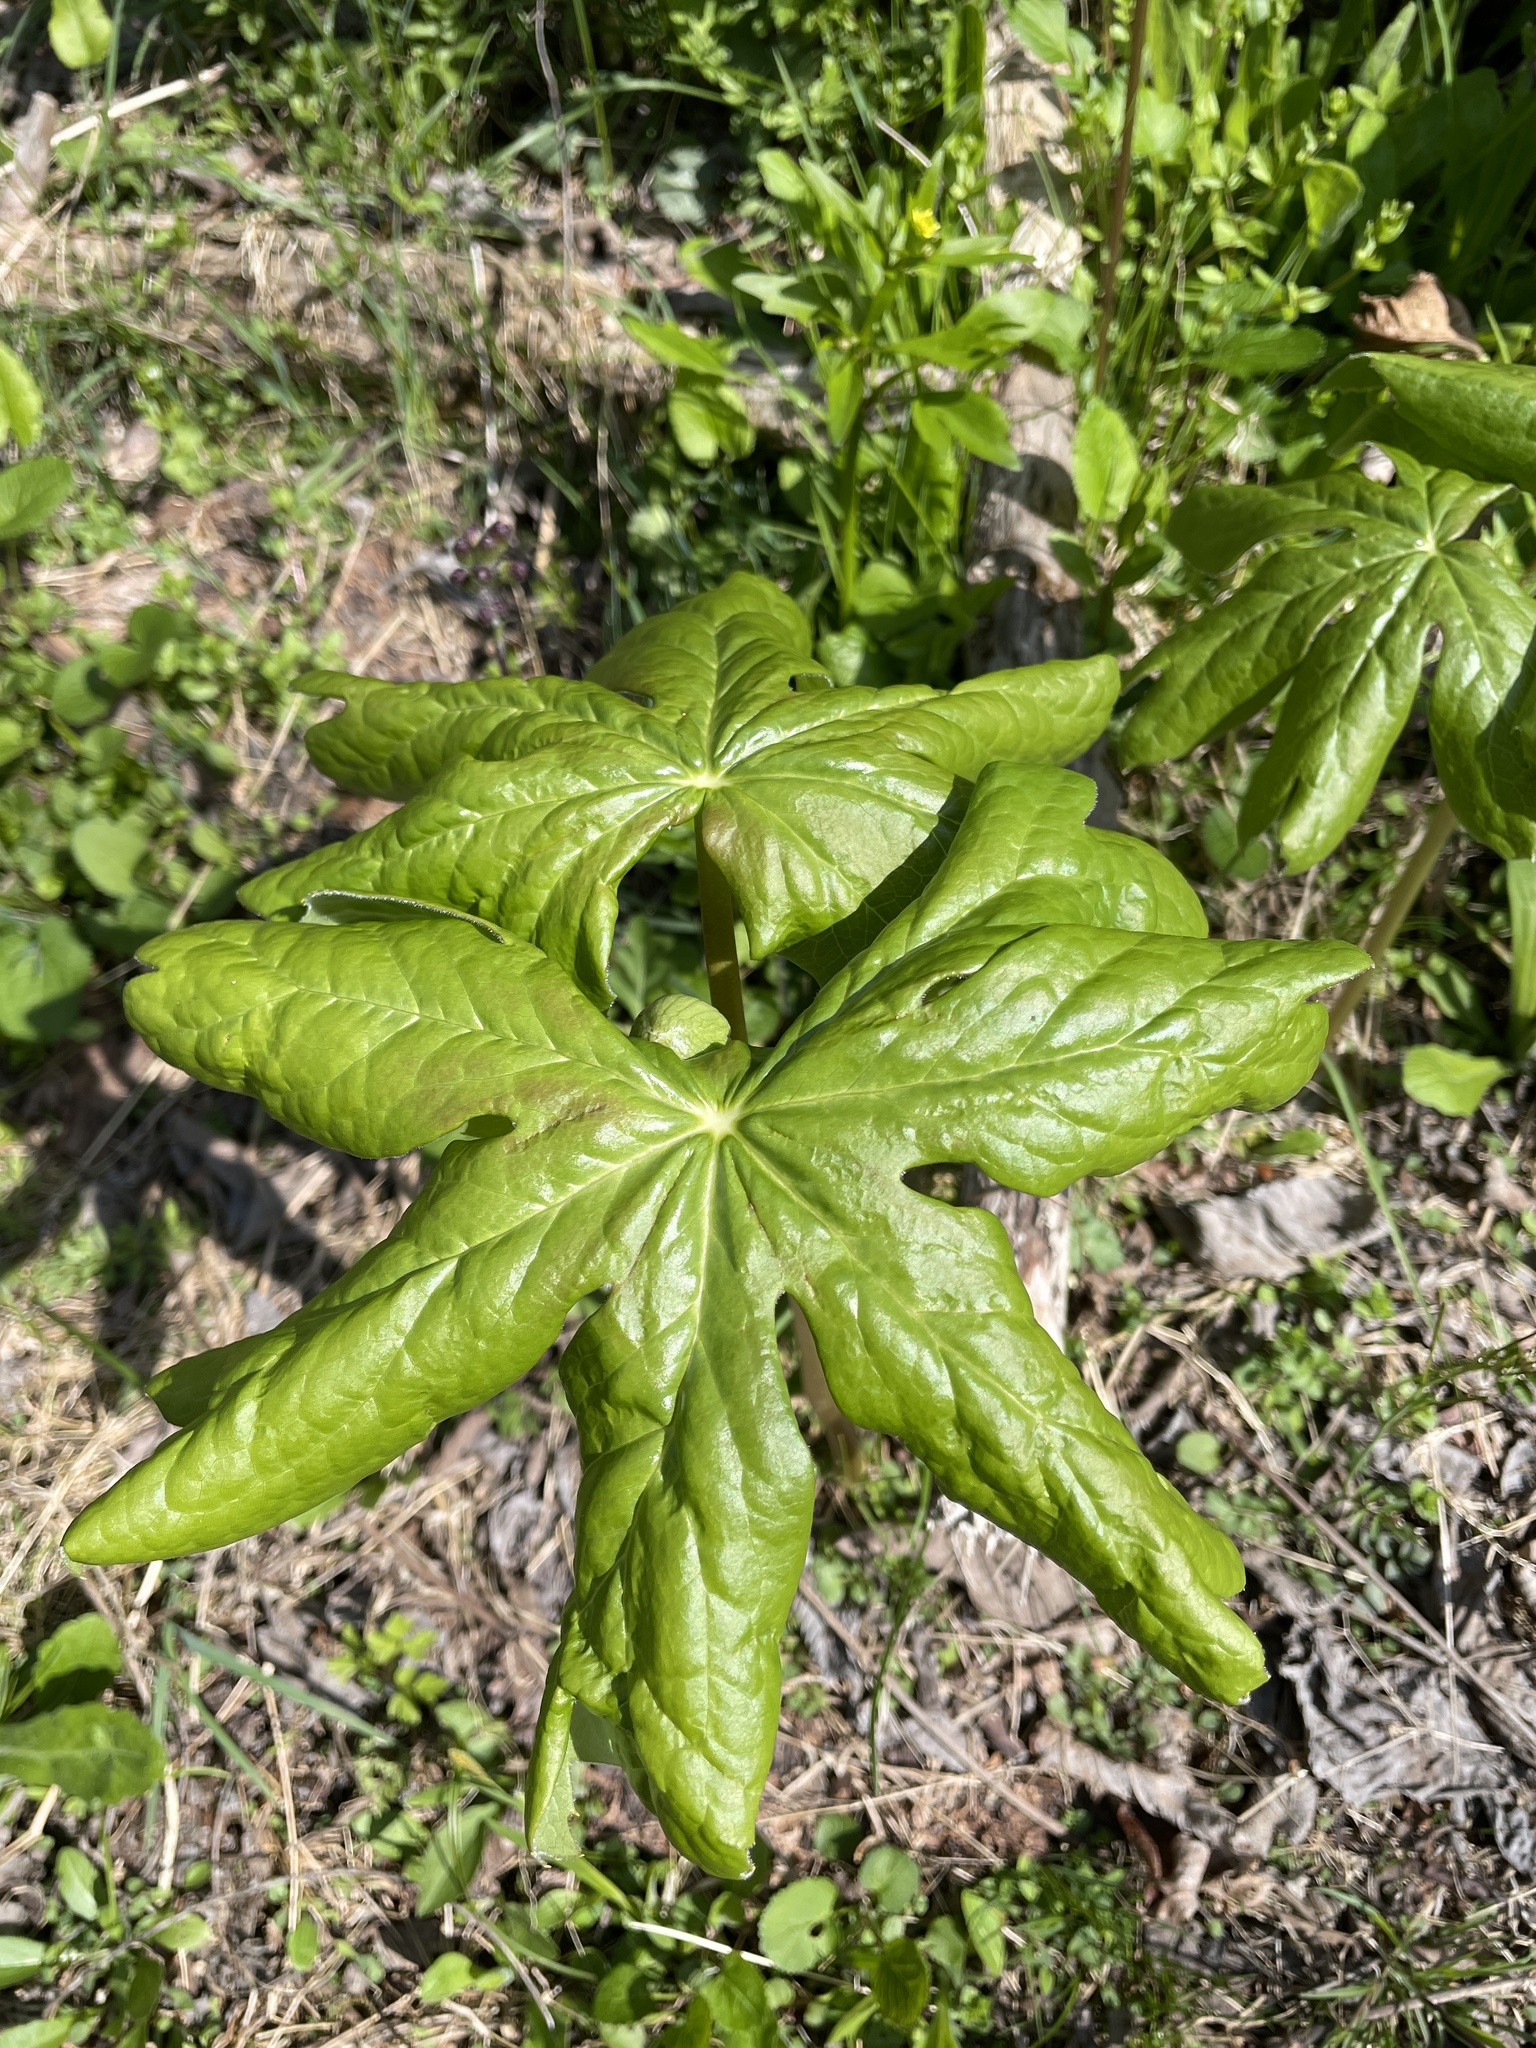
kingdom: Plantae
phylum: Tracheophyta
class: Magnoliopsida
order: Ranunculales
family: Berberidaceae
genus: Podophyllum
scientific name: Podophyllum peltatum
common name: Wild mandrake
